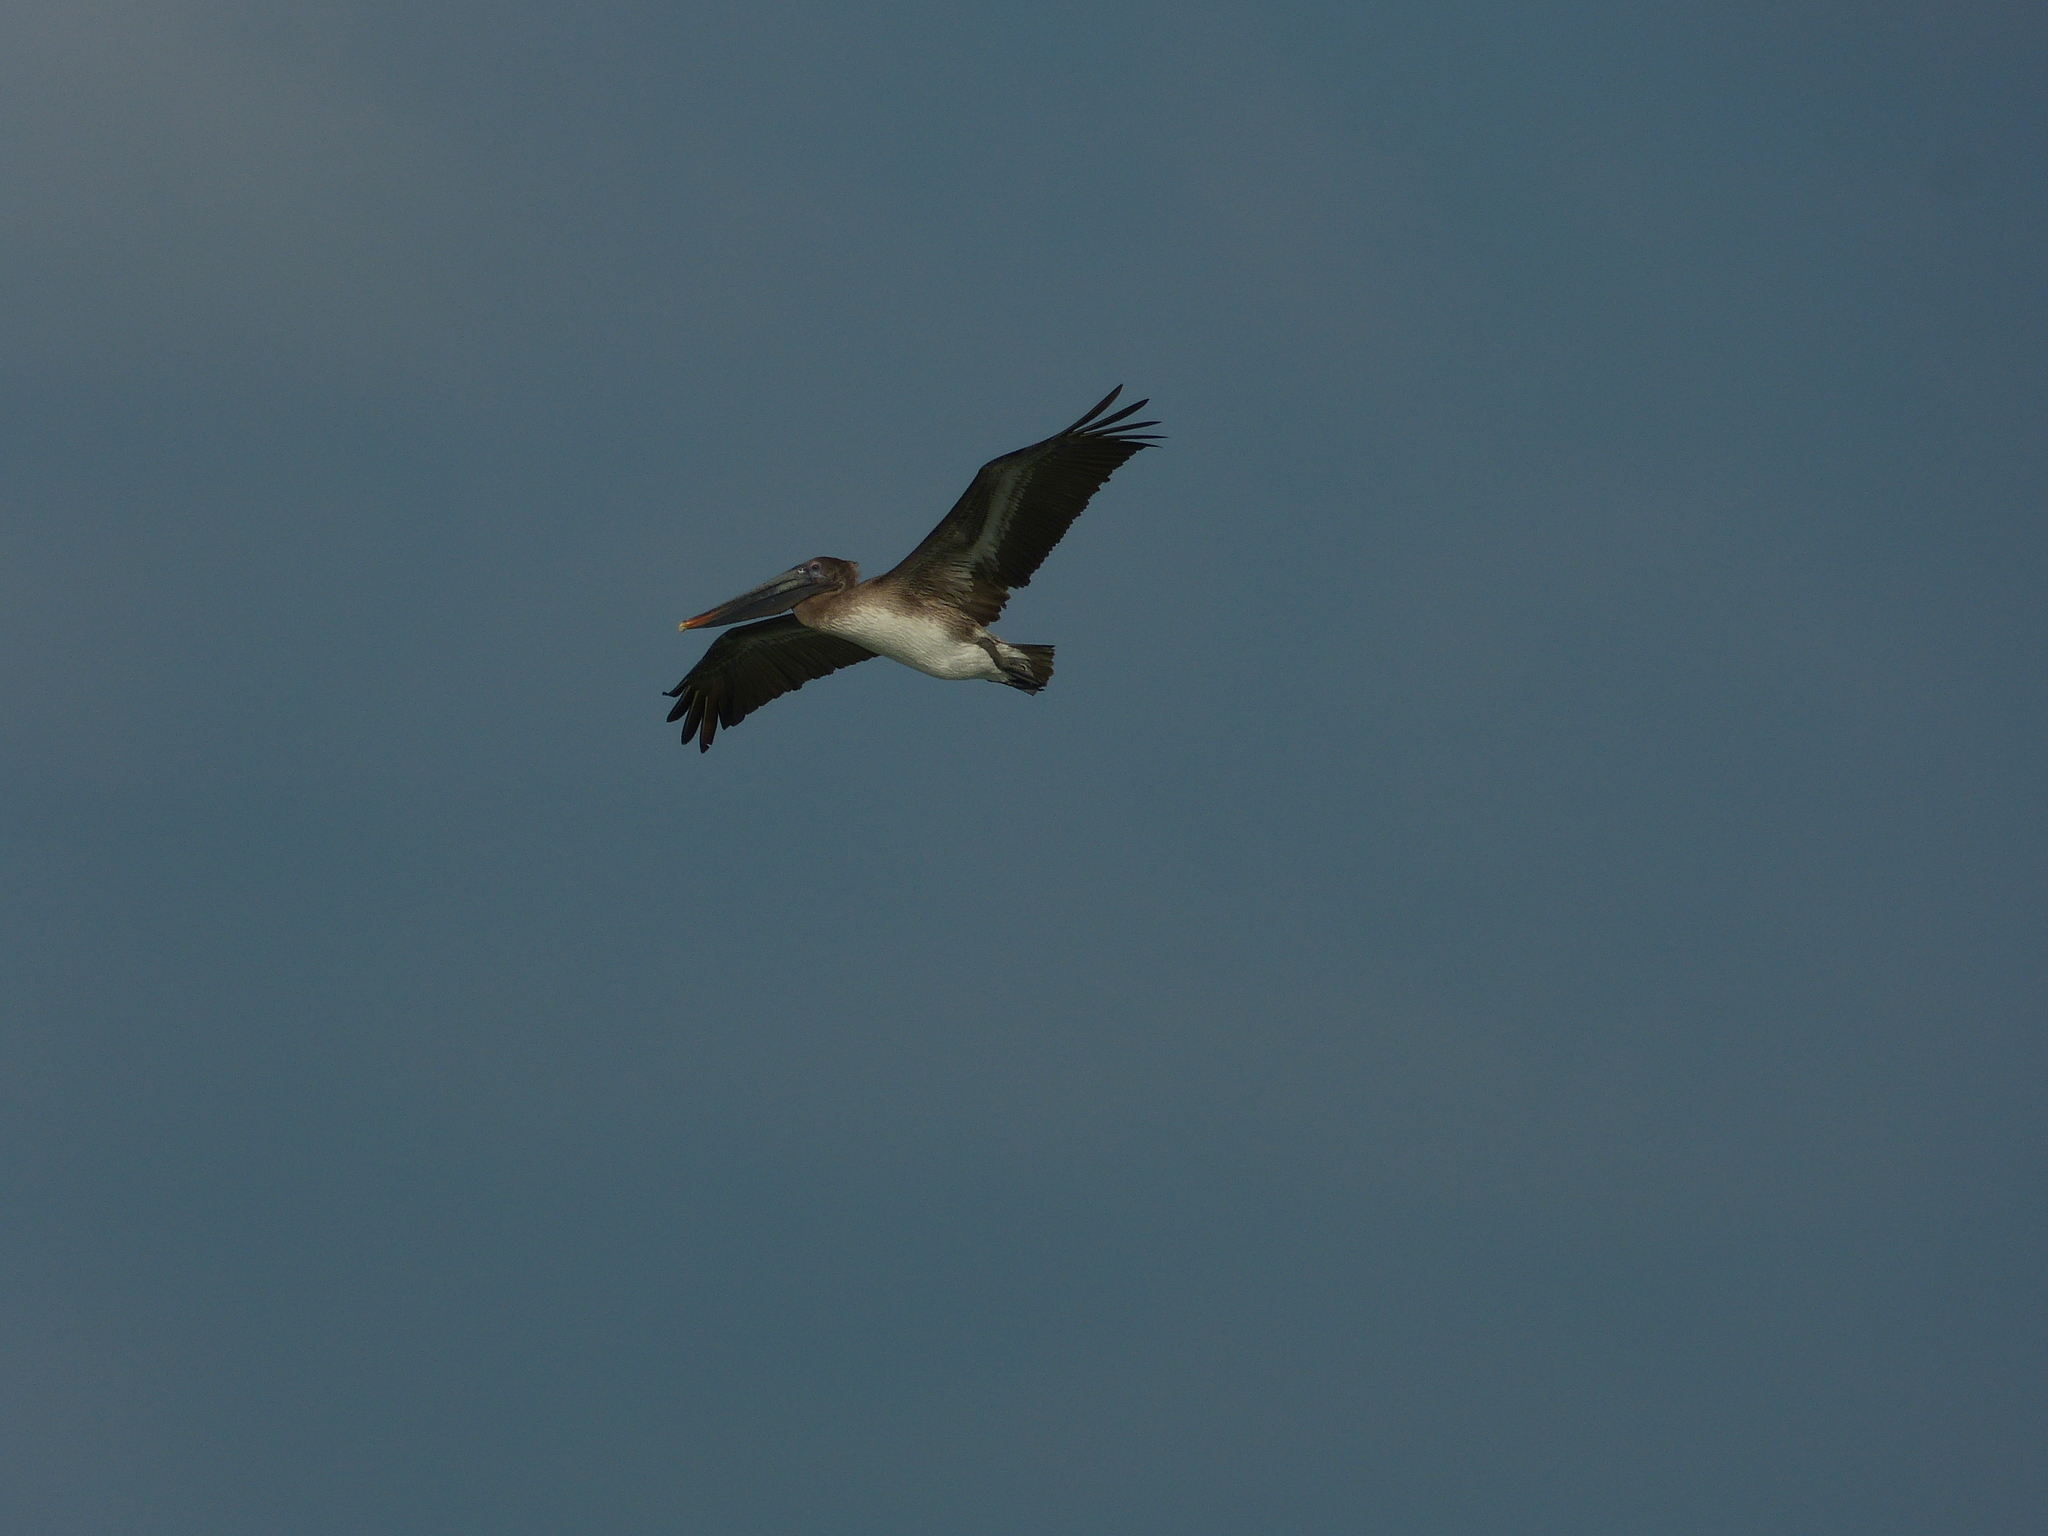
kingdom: Animalia
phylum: Chordata
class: Aves
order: Pelecaniformes
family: Pelecanidae
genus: Pelecanus
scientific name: Pelecanus occidentalis
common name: Brown pelican
